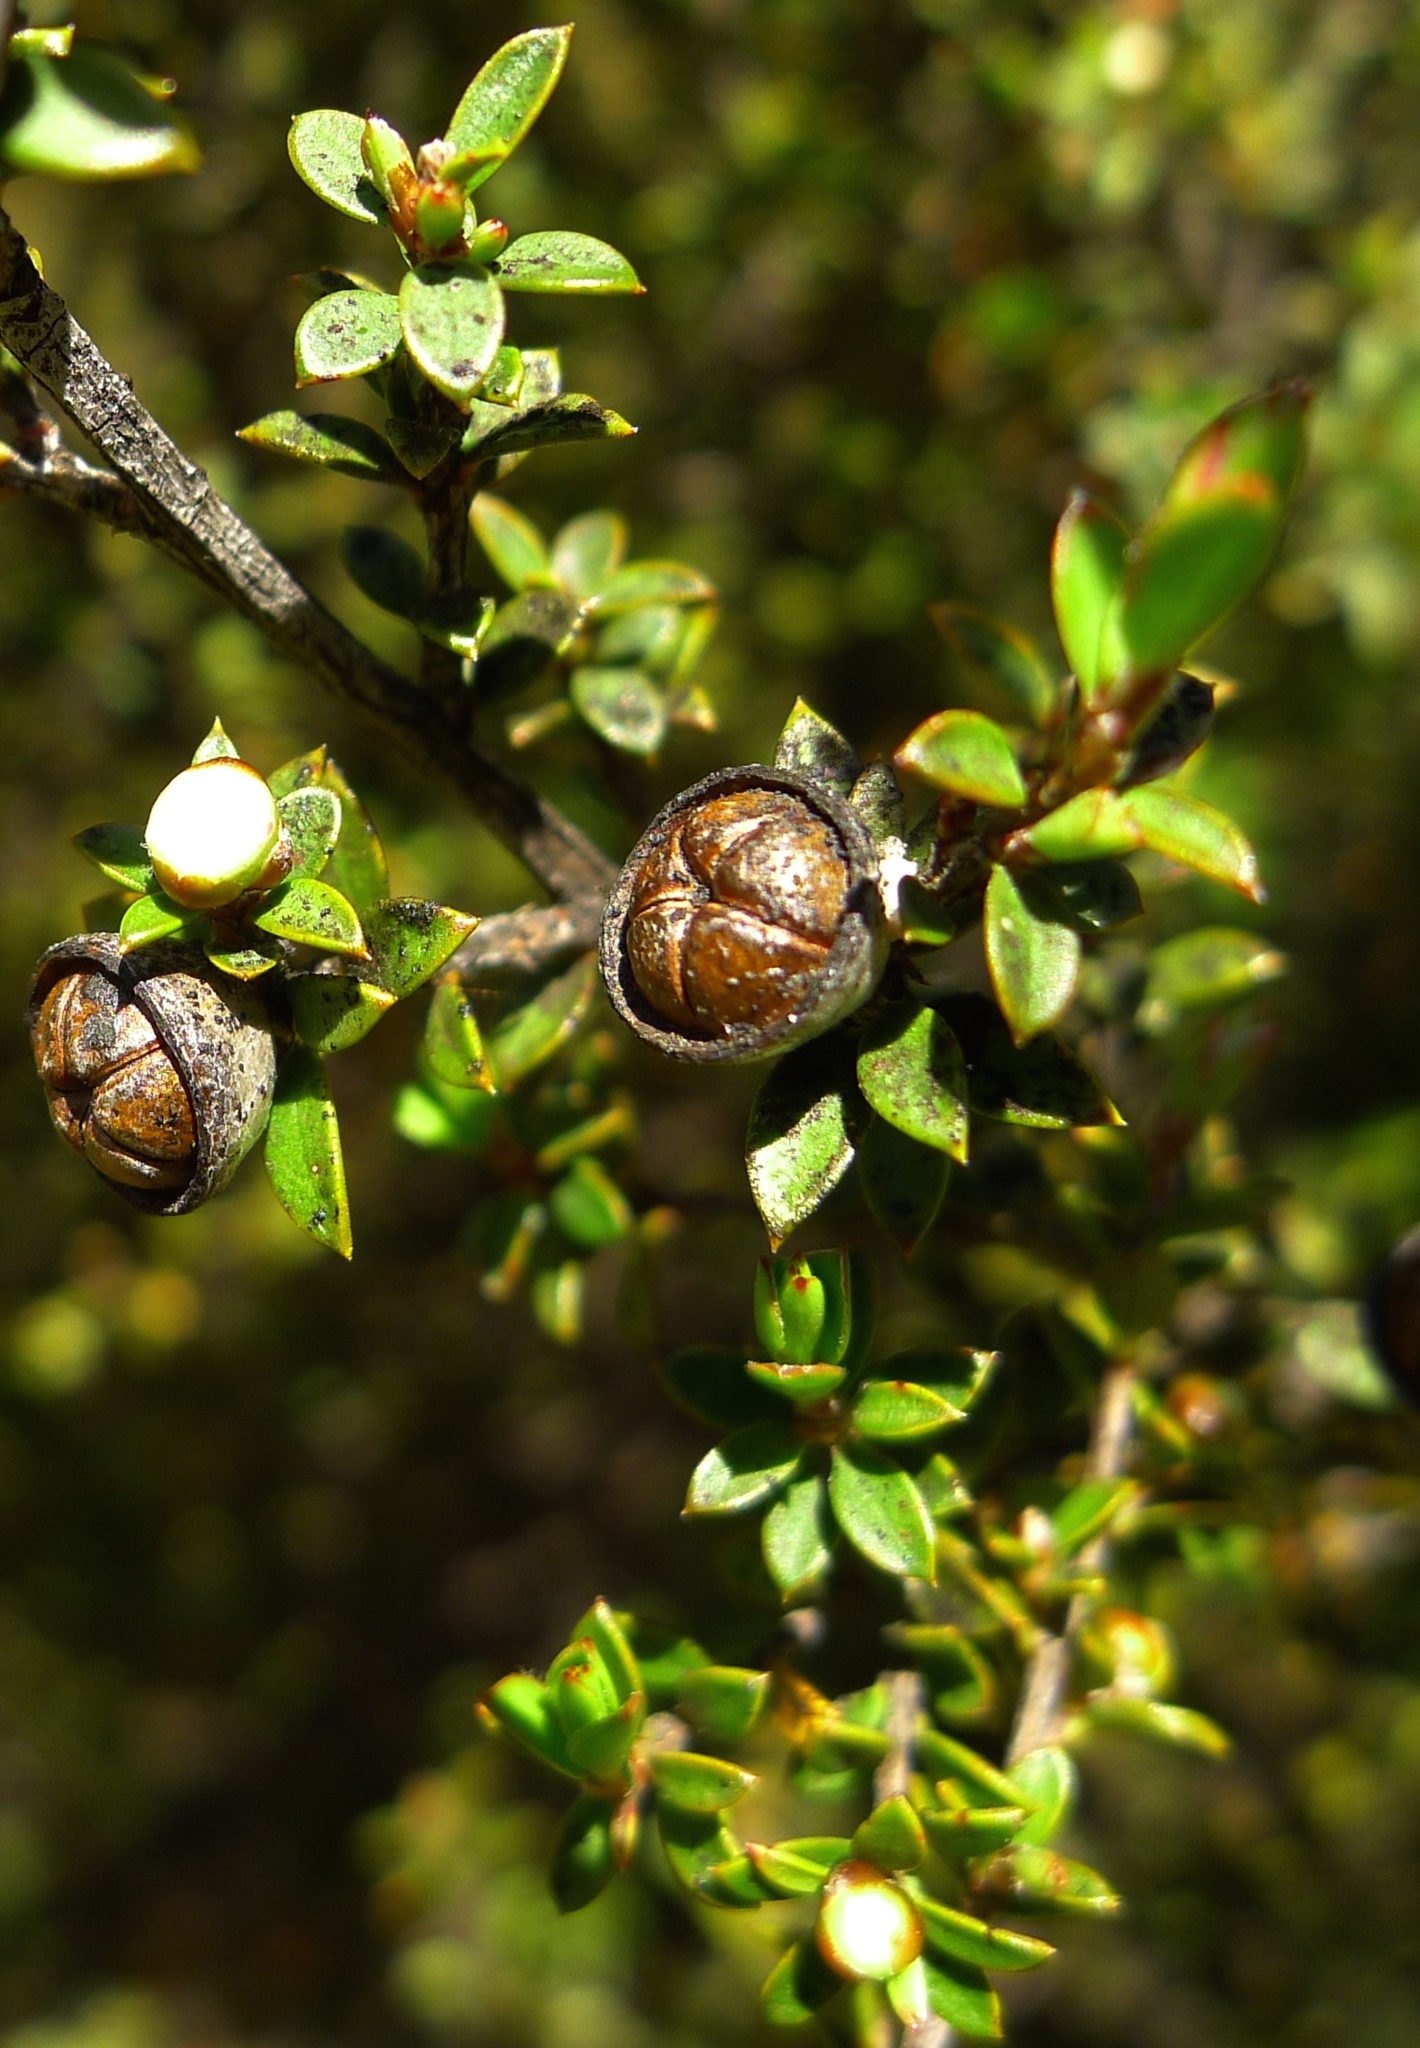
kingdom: Plantae
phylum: Tracheophyta
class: Magnoliopsida
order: Myrtales
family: Myrtaceae
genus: Leptospermum
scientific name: Leptospermum scoparium
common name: Broom tea-tree
